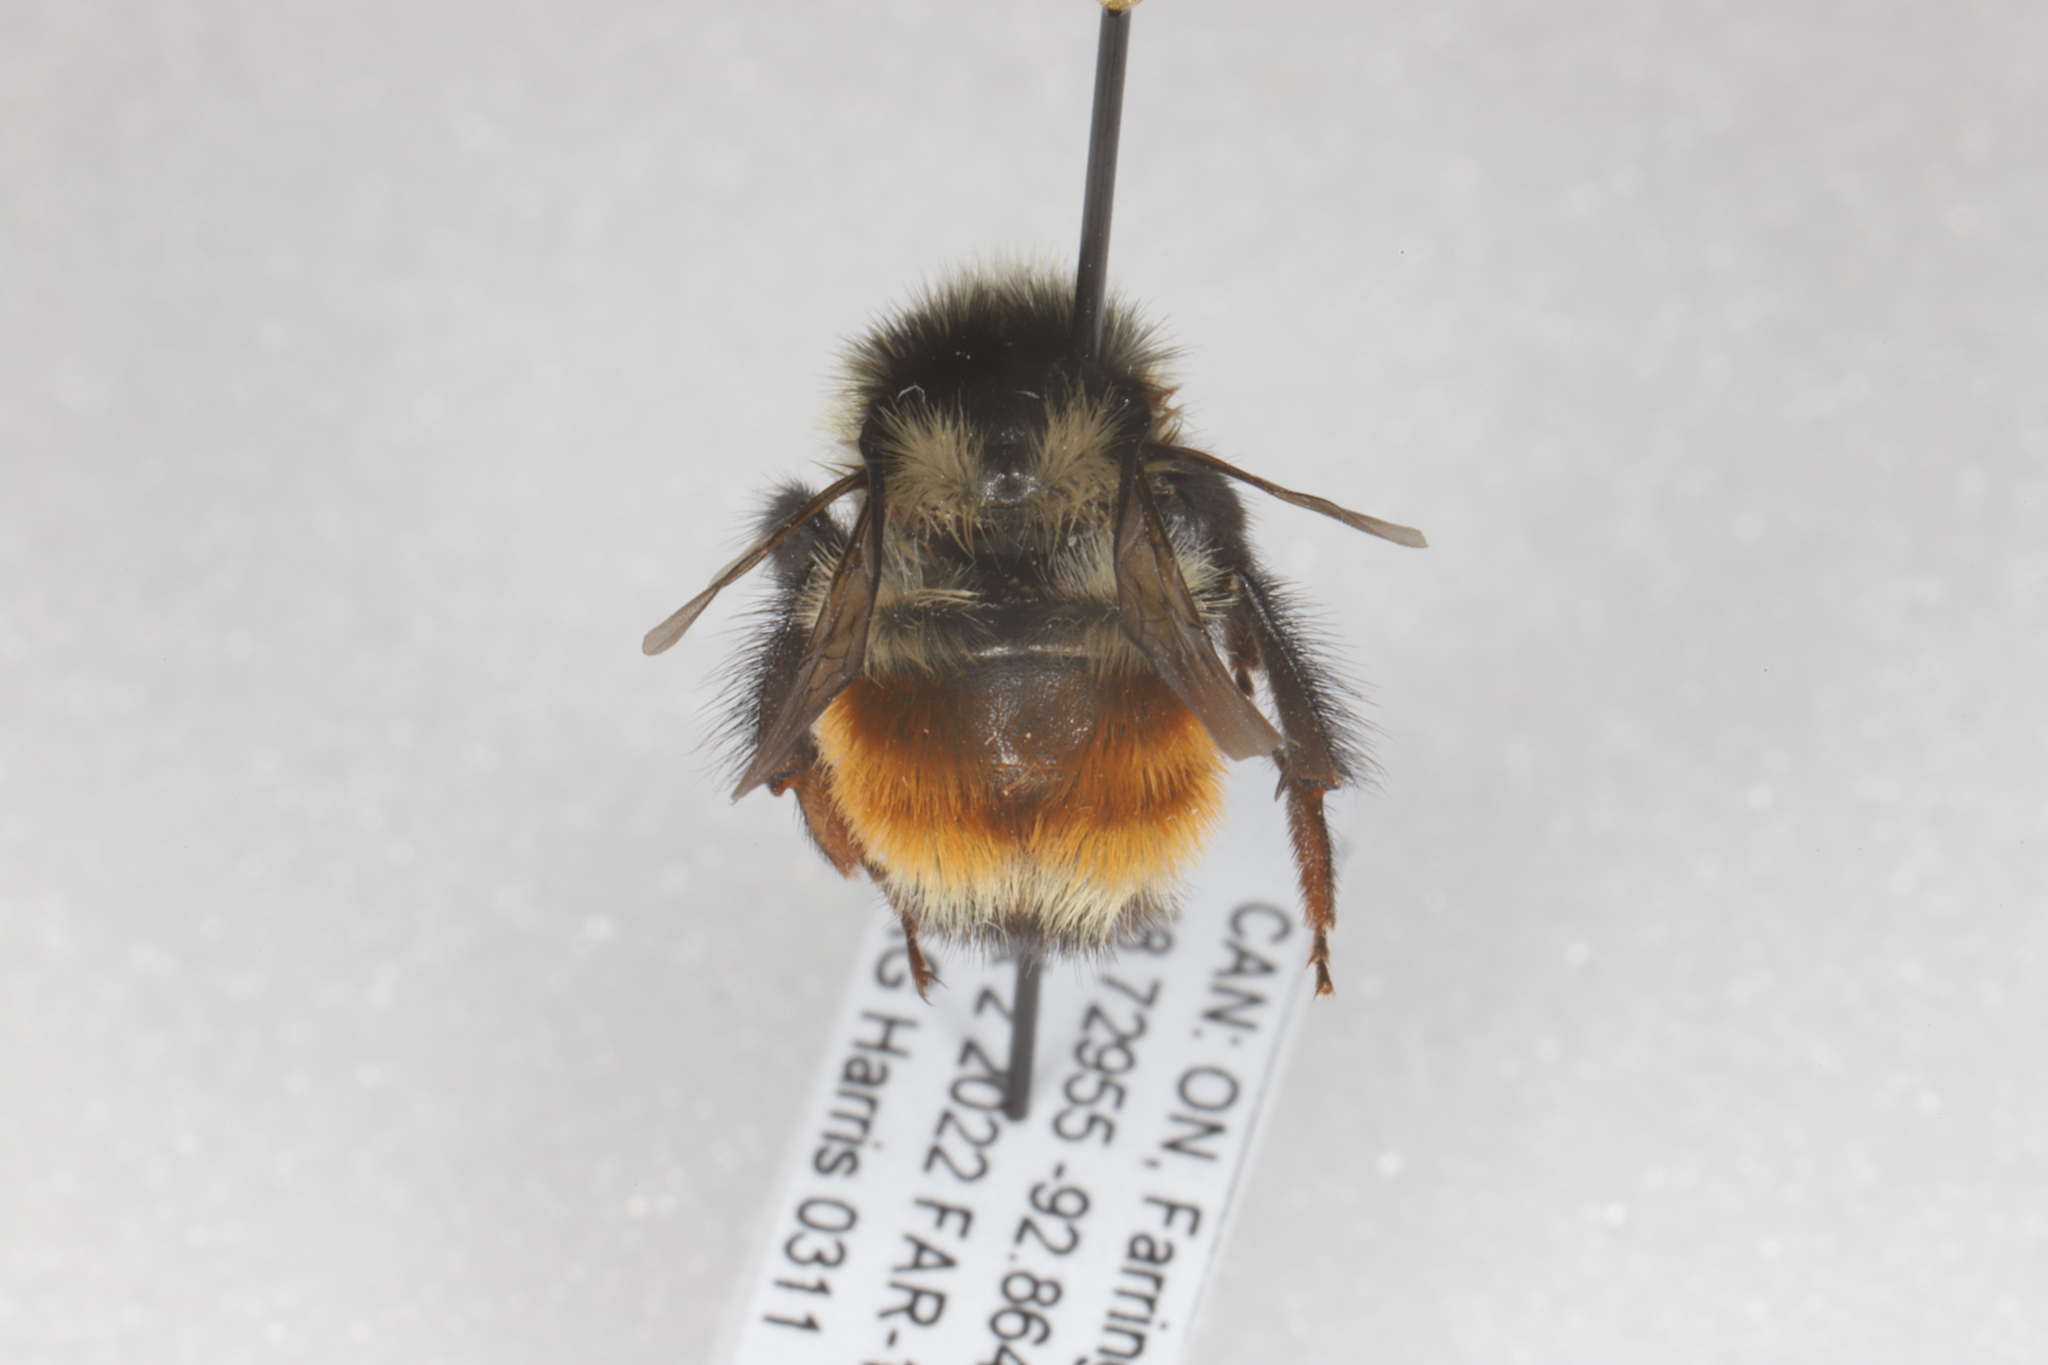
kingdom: Animalia
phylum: Arthropoda
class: Insecta
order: Hymenoptera
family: Apidae
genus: Bombus
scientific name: Bombus ternarius
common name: Tri-colored bumble bee
